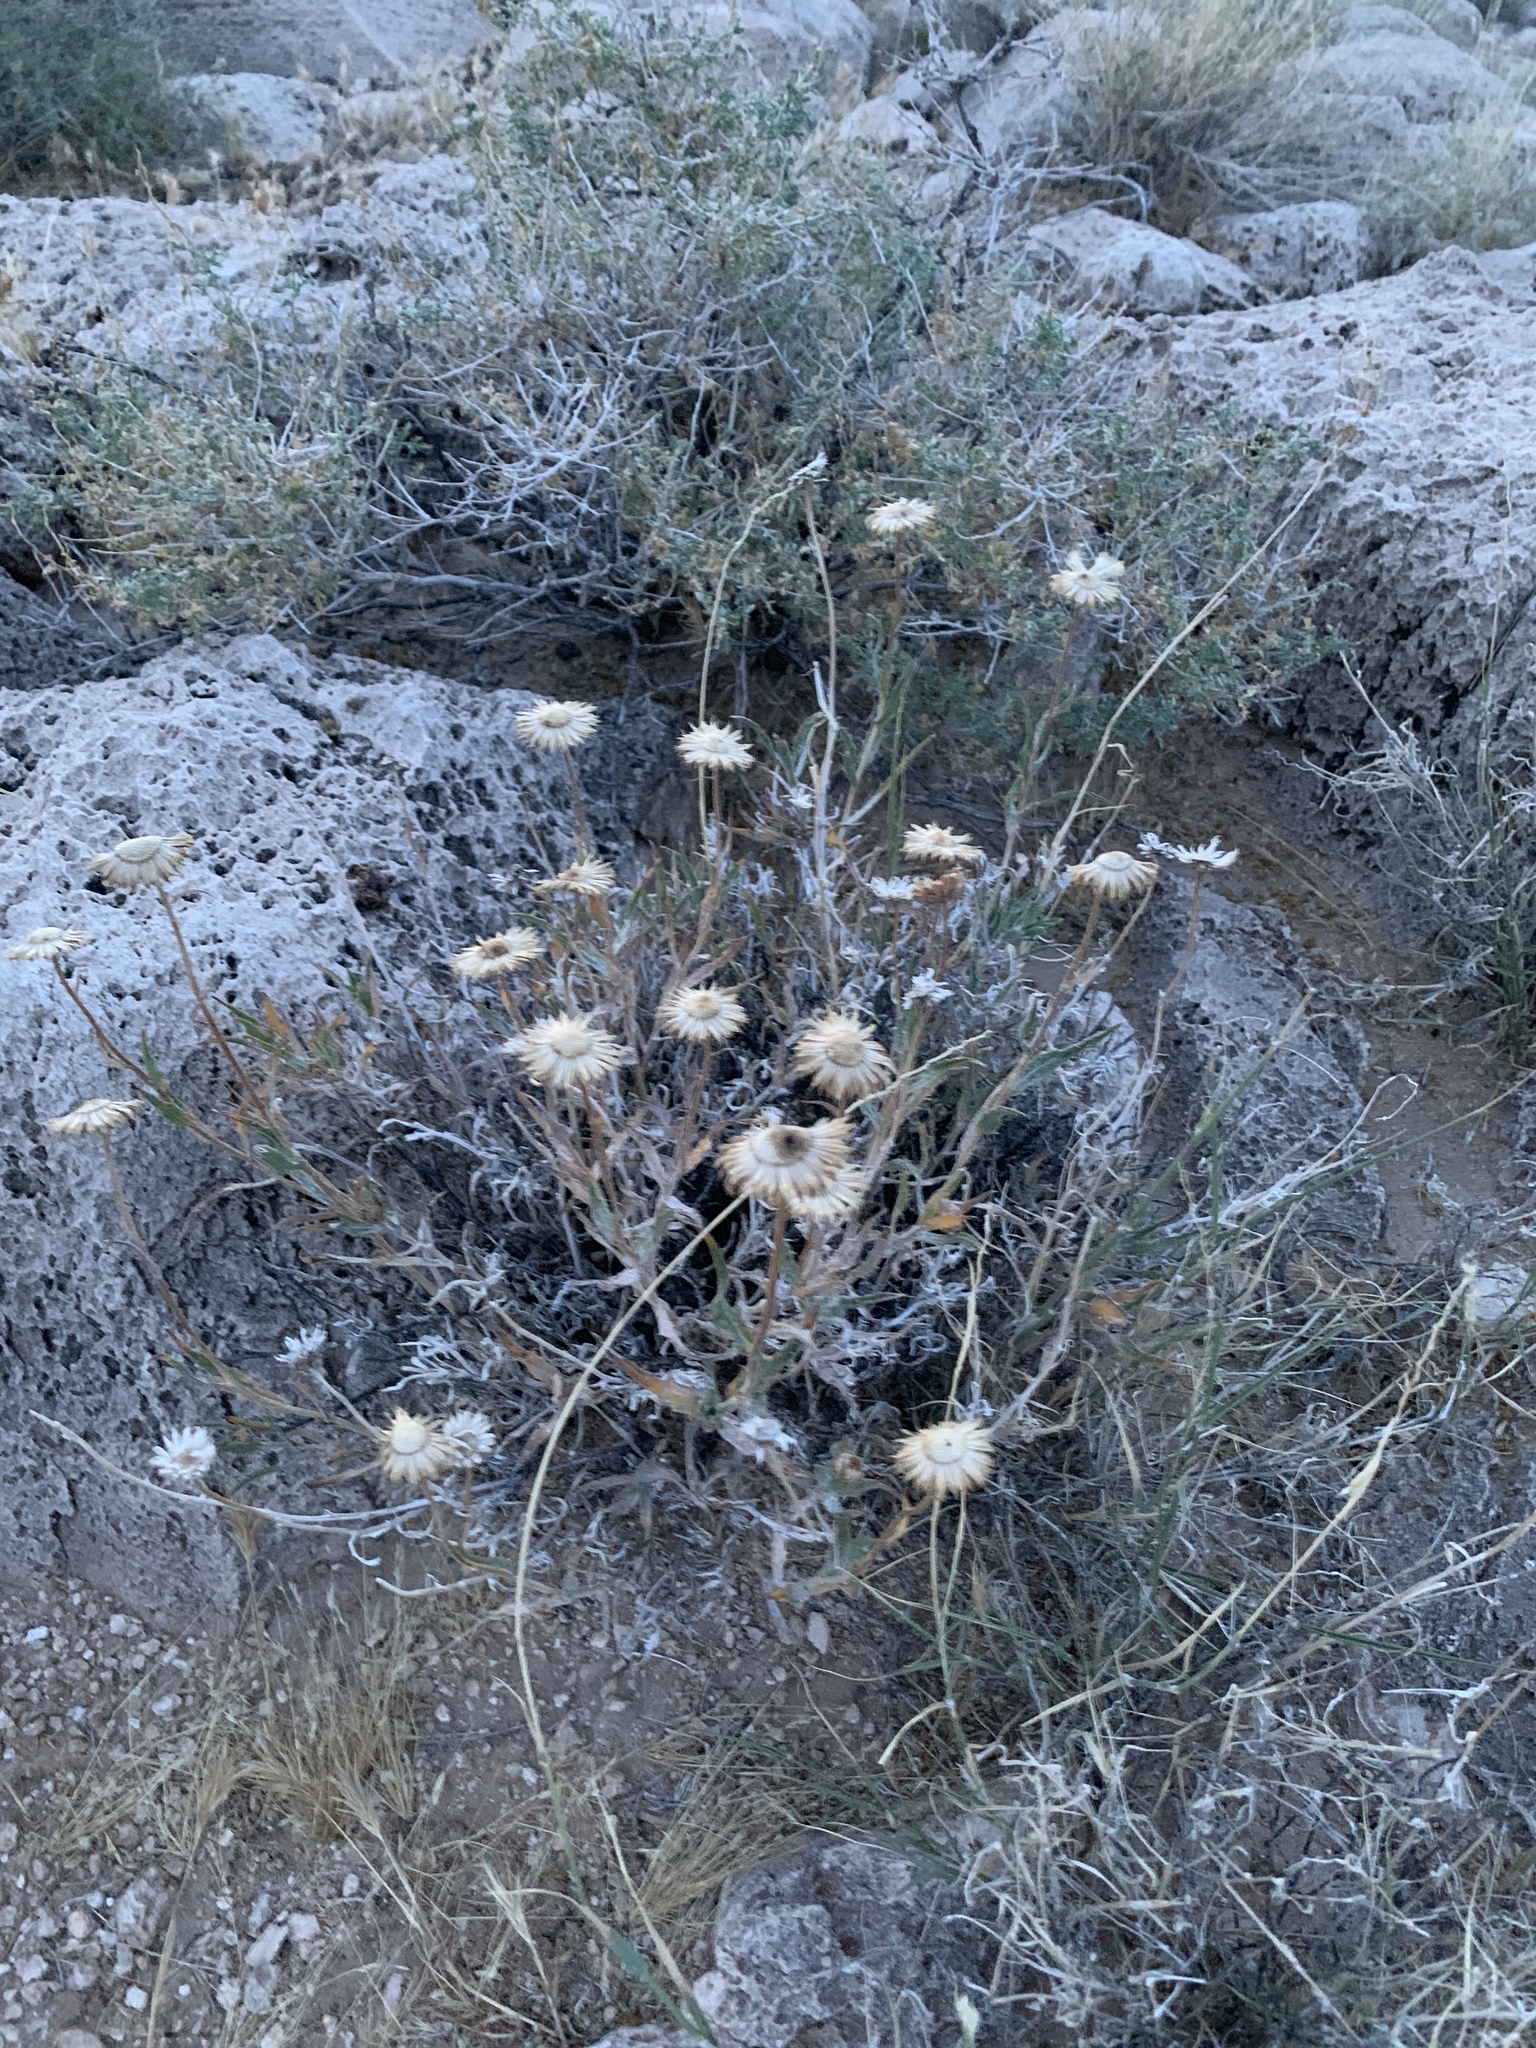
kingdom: Plantae
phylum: Tracheophyta
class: Magnoliopsida
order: Asterales
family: Asteraceae
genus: Xylorhiza
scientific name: Xylorhiza tortifolia
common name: Hurt-leaf woody-aster
